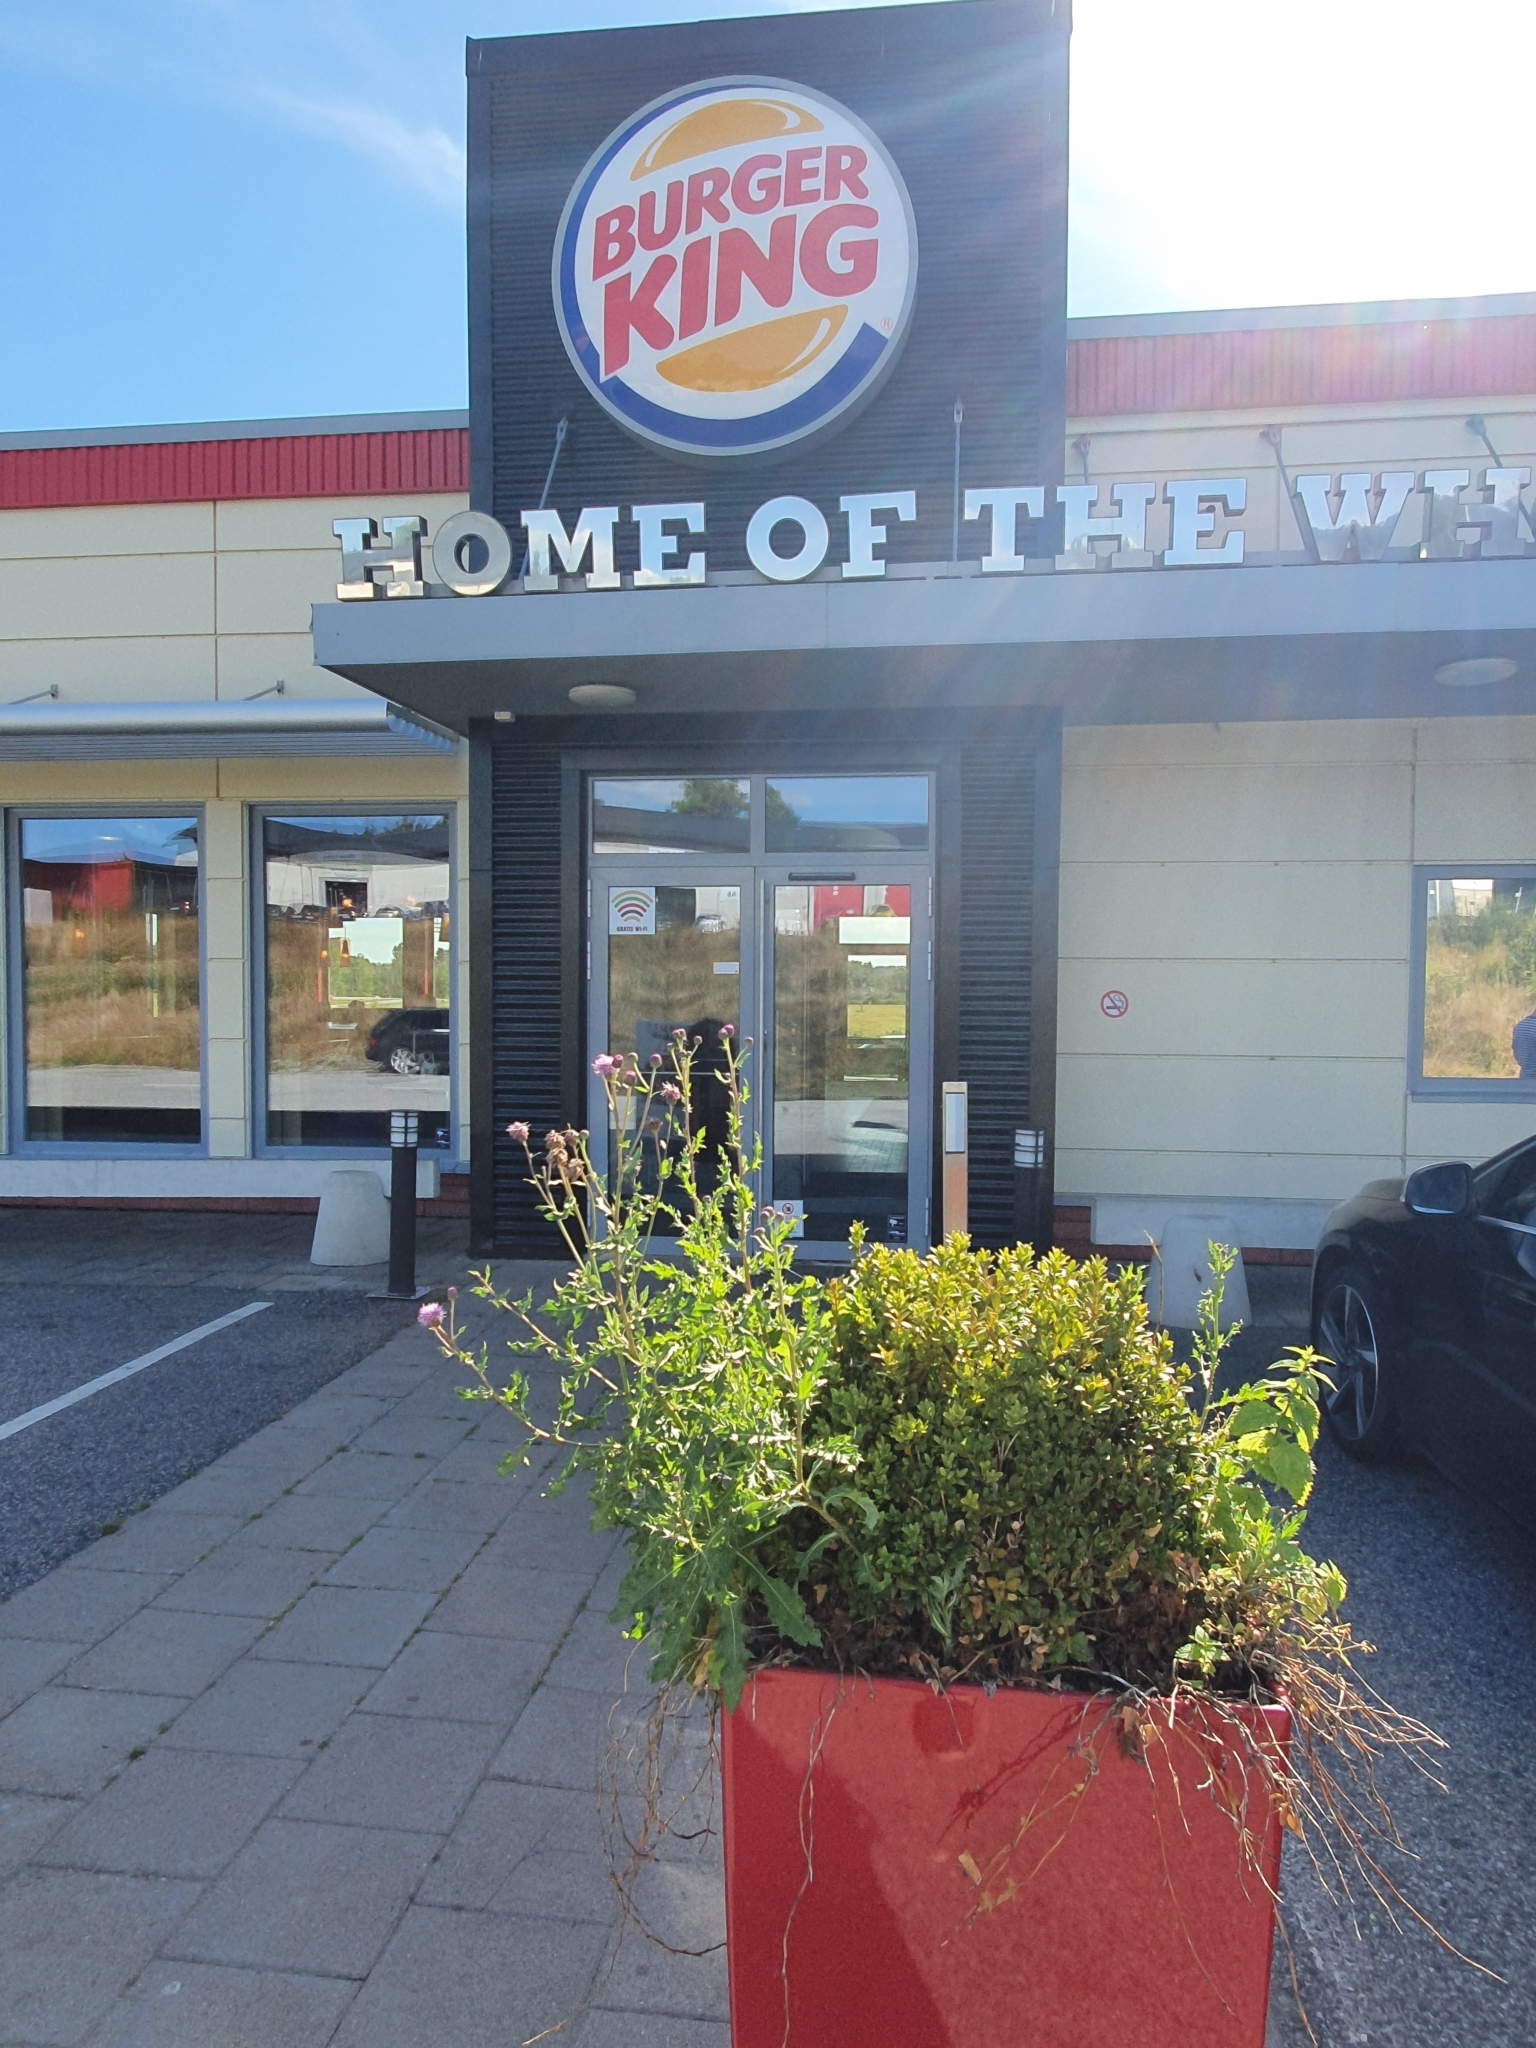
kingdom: Plantae
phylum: Tracheophyta
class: Magnoliopsida
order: Asterales
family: Asteraceae
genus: Cirsium
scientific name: Cirsium arvense
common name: Creeping thistle
